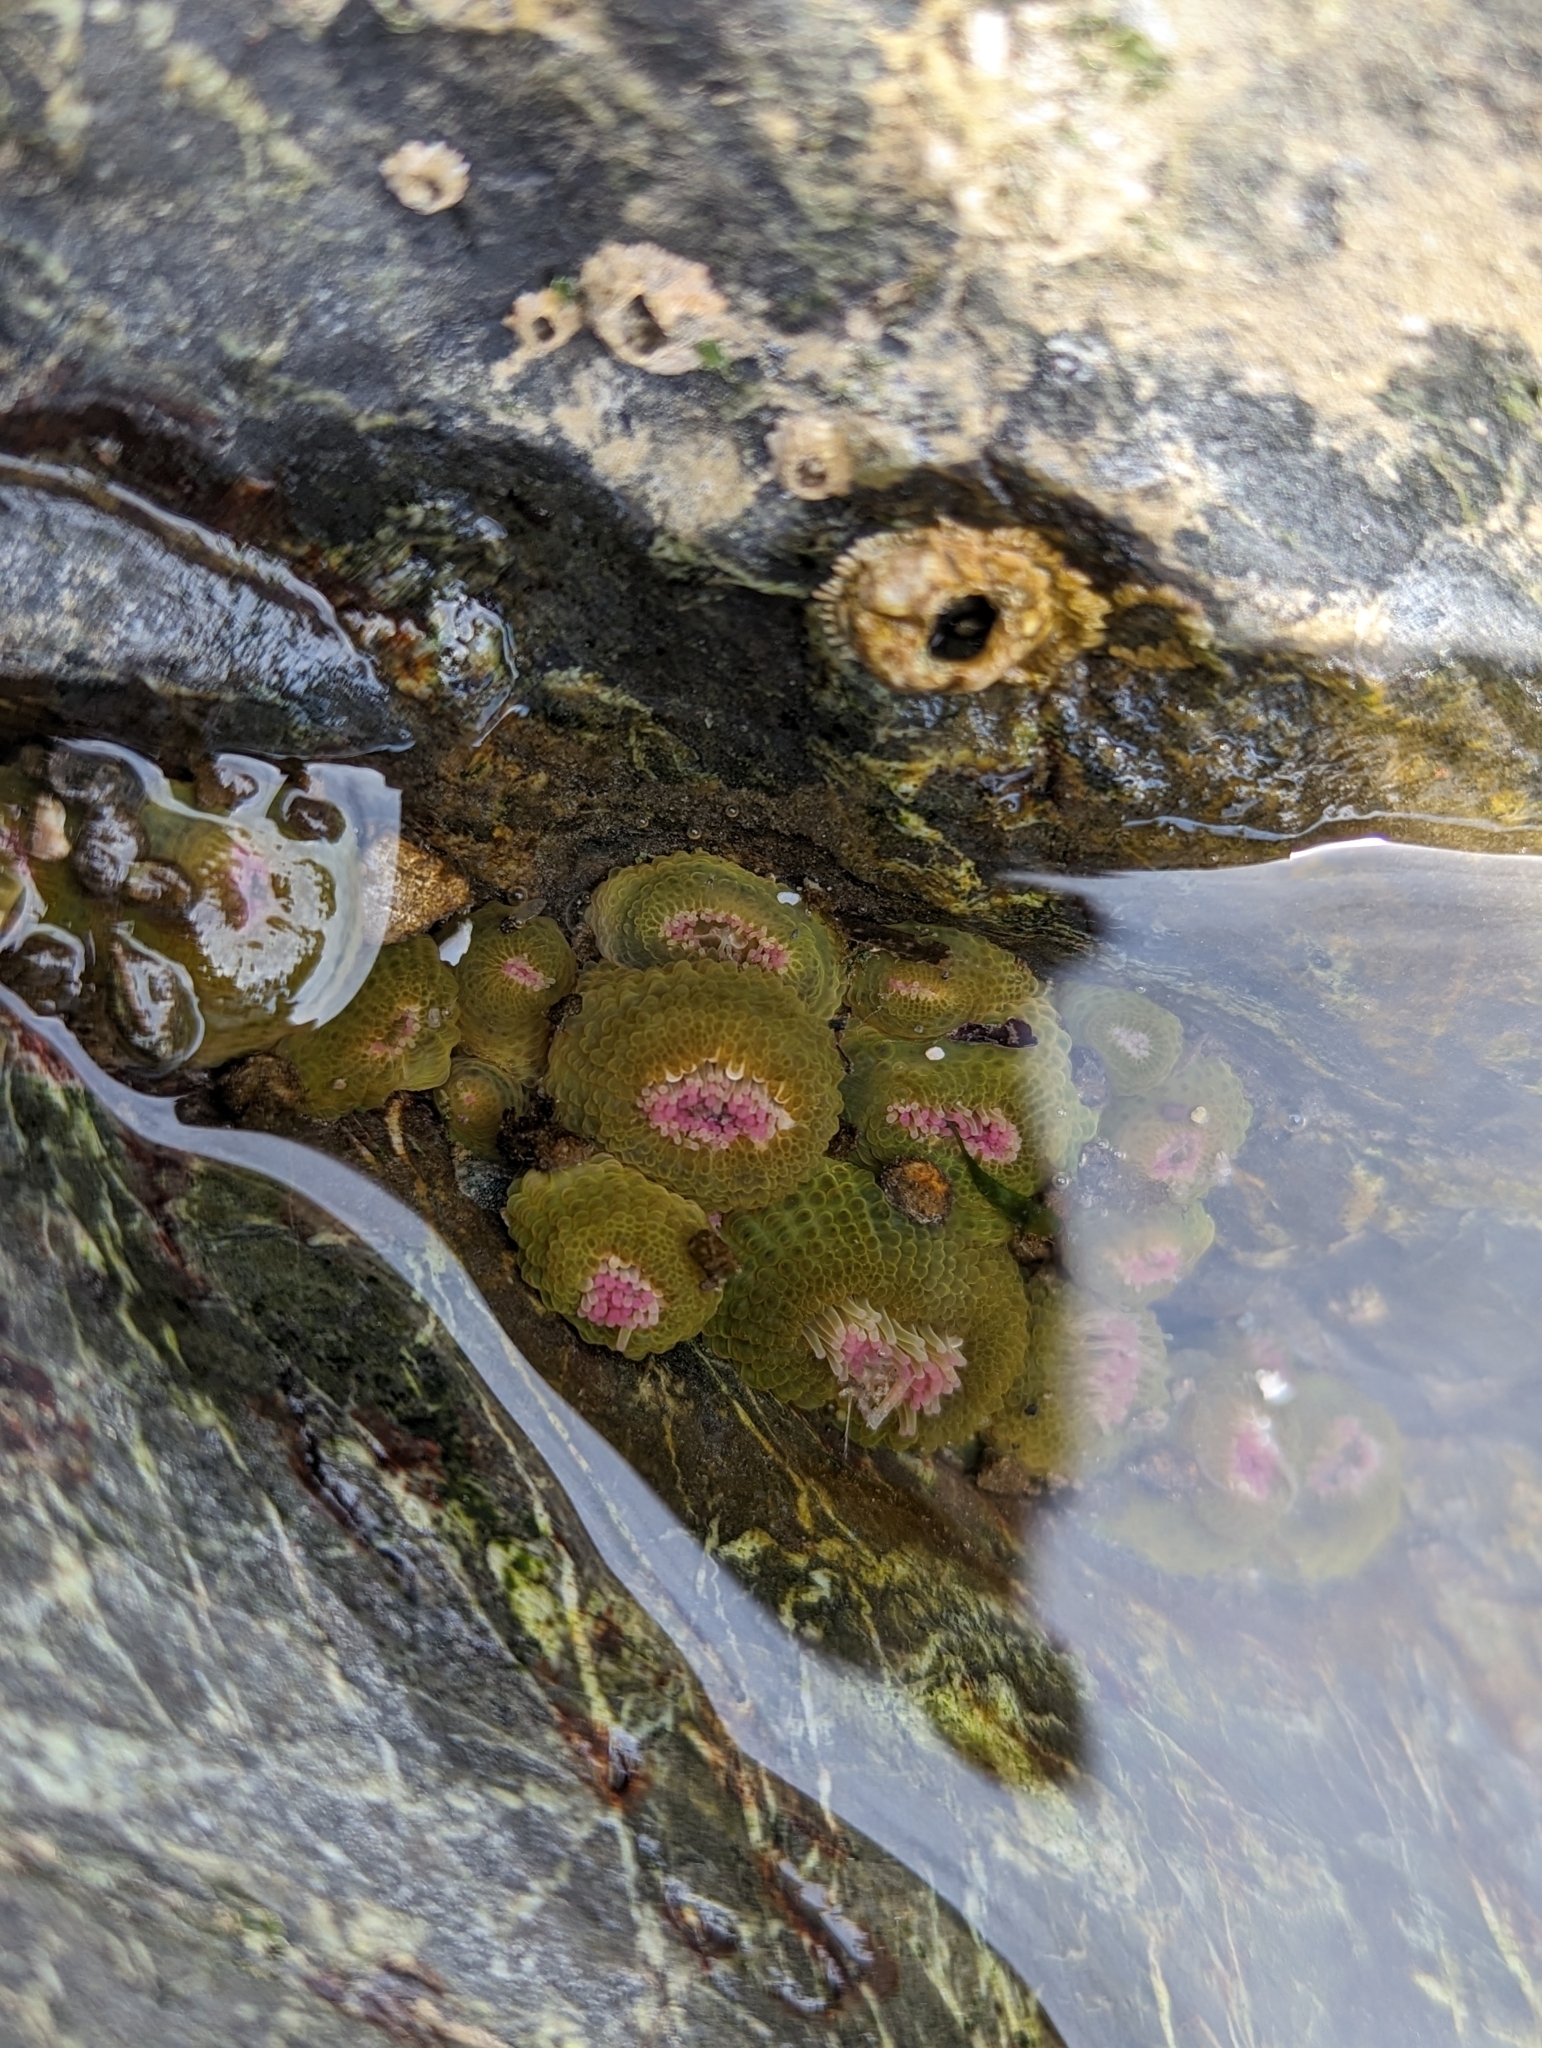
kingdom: Animalia
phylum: Cnidaria
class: Anthozoa
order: Actiniaria
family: Actiniidae
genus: Anthopleura
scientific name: Anthopleura elegantissima
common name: Clonal anemone
